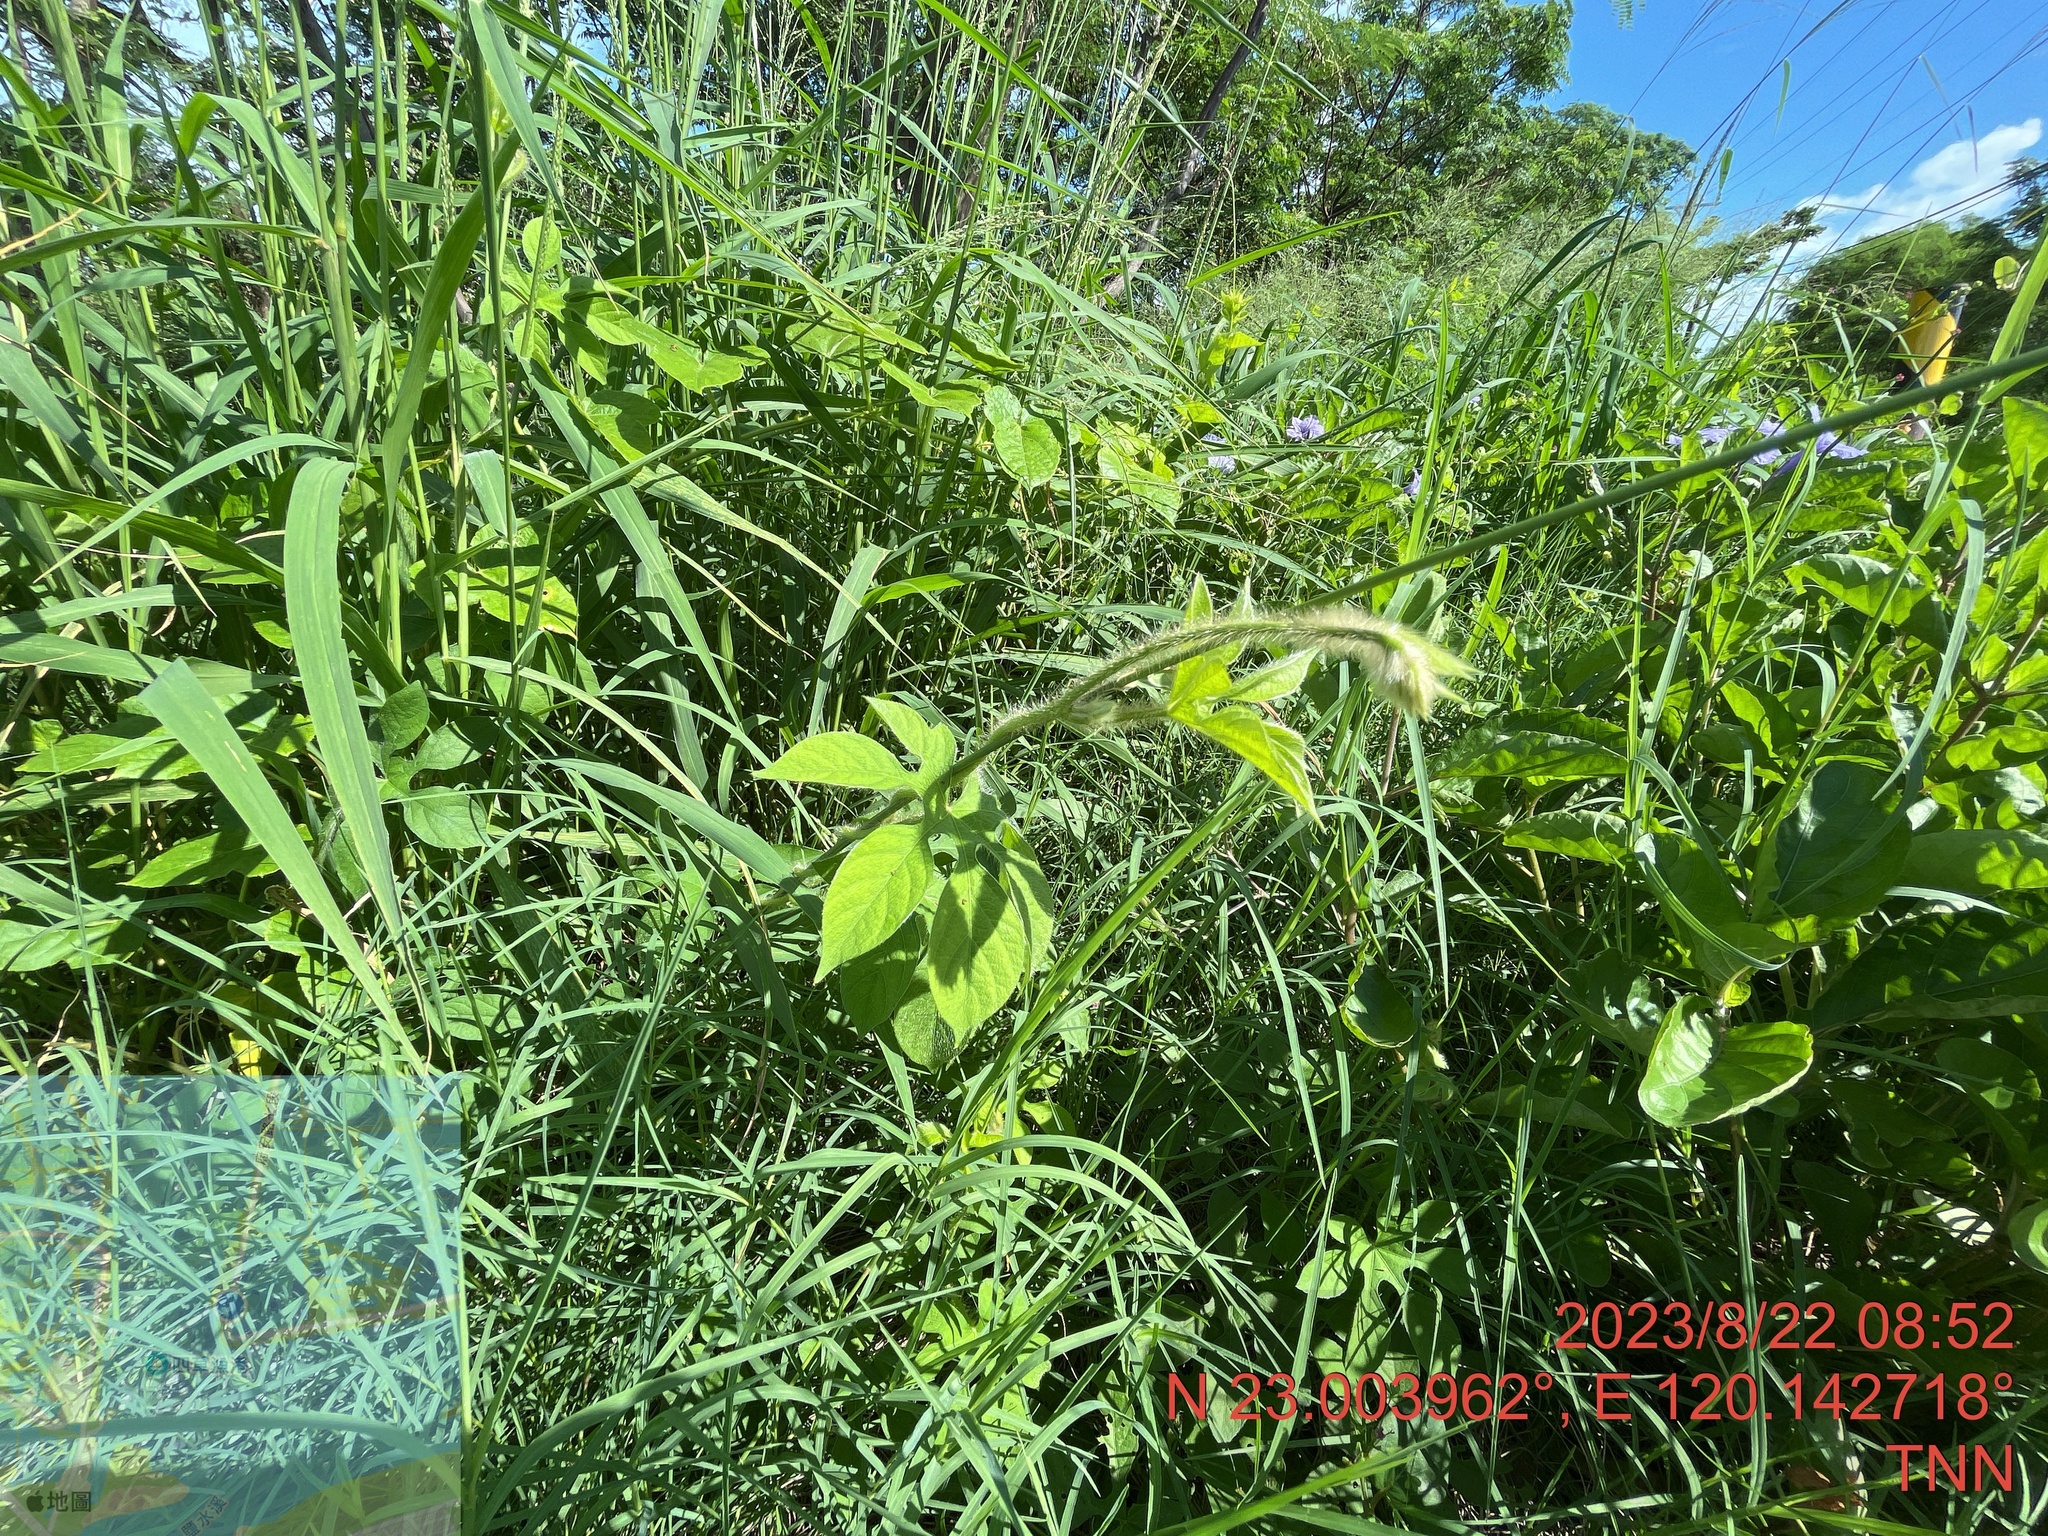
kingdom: Plantae
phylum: Tracheophyta
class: Magnoliopsida
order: Solanales
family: Convolvulaceae
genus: Ipomoea
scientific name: Ipomoea pes-tigridis
